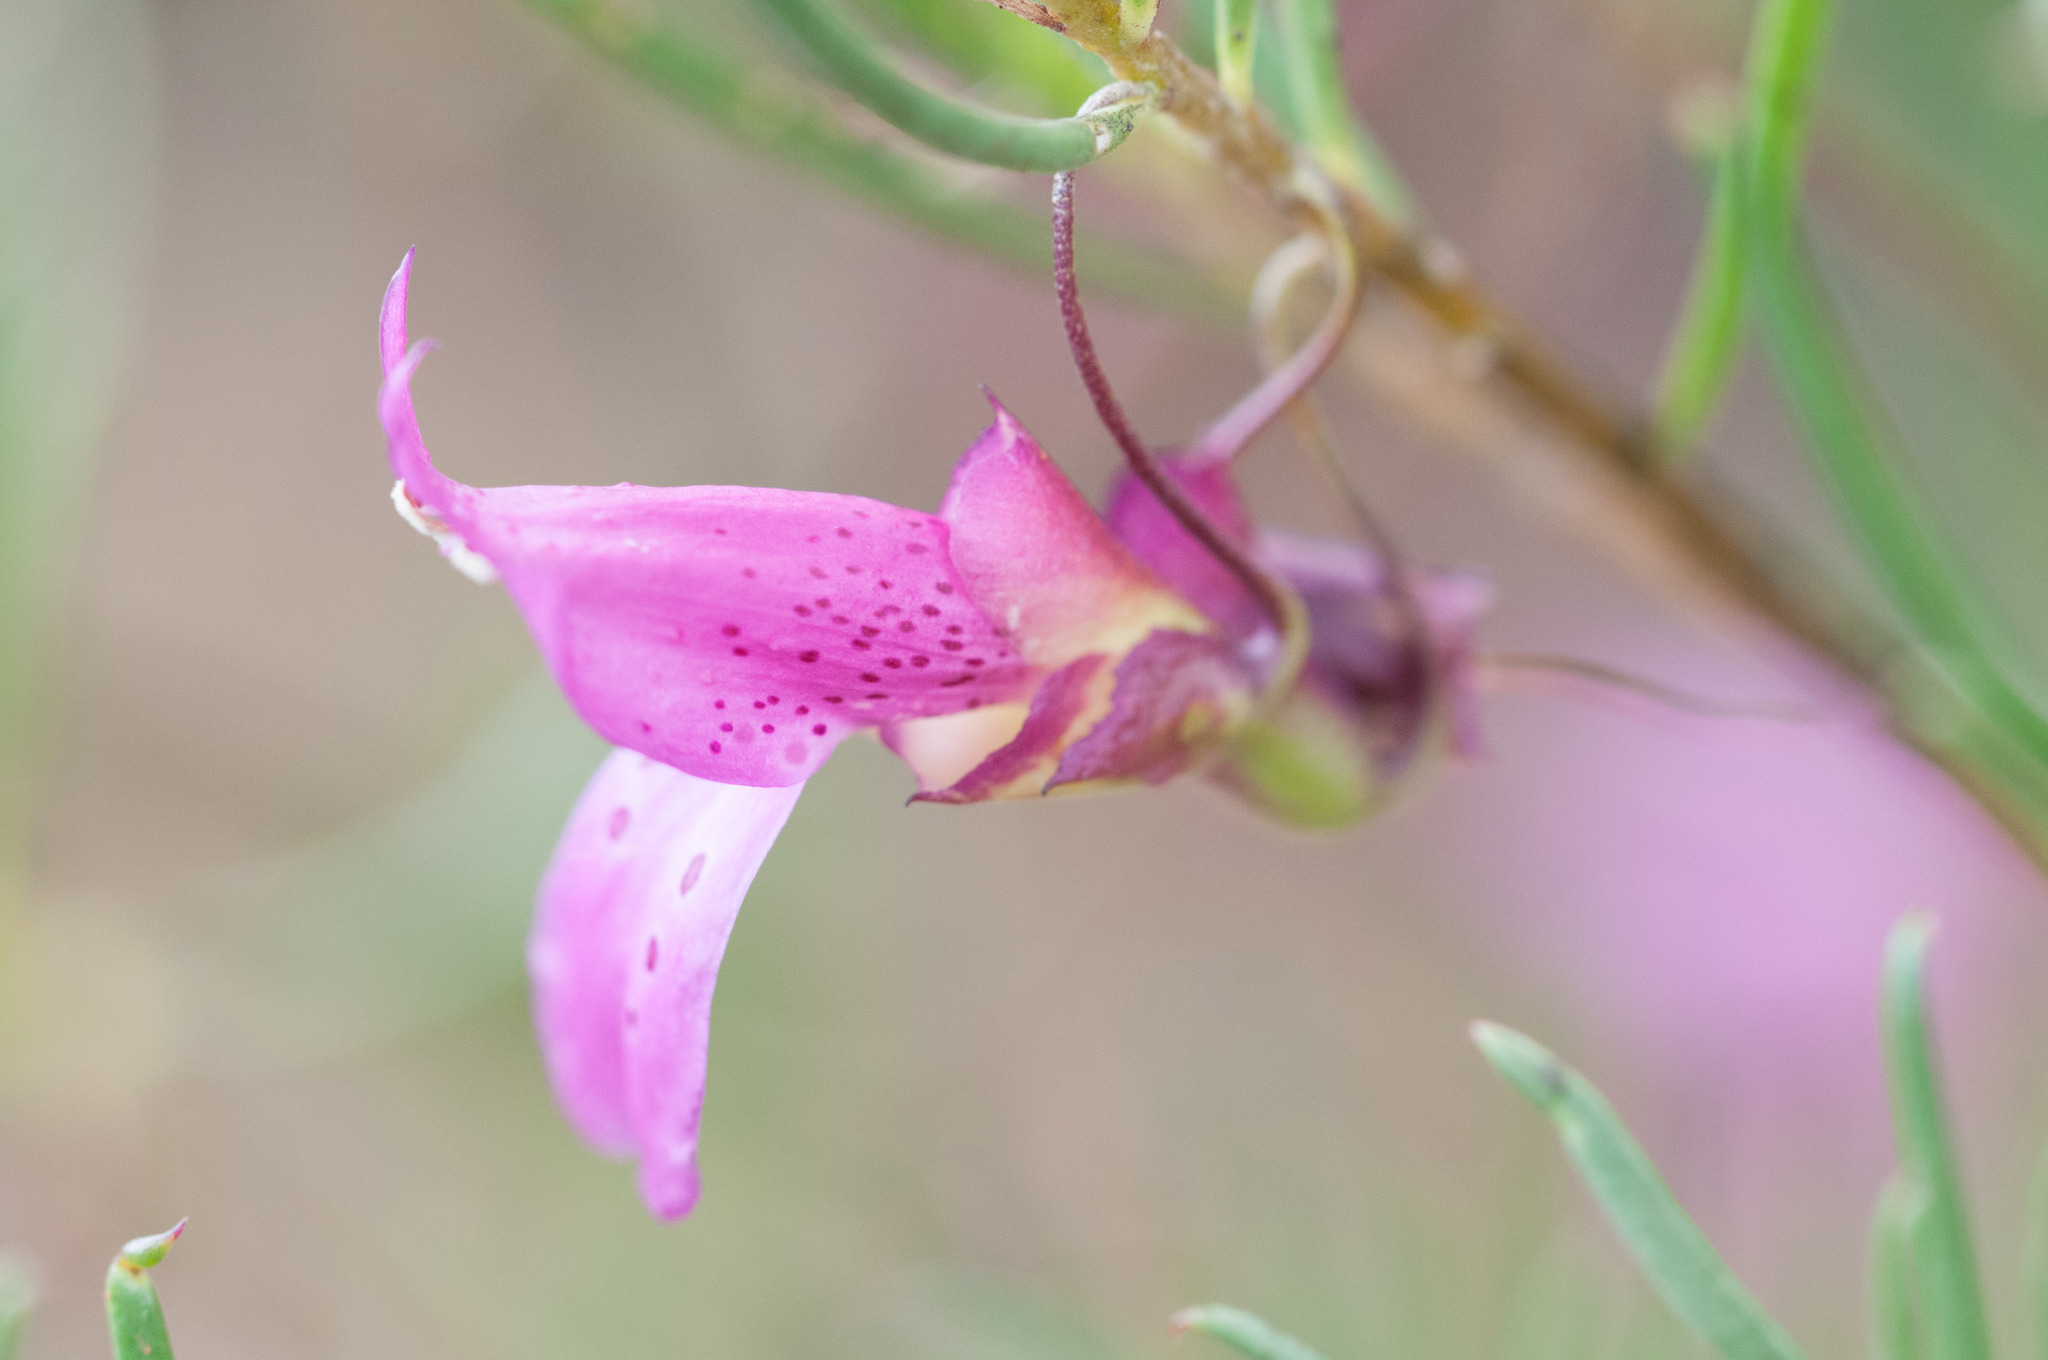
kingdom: Plantae
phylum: Tracheophyta
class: Magnoliopsida
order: Lamiales
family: Scrophulariaceae
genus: Eremophila
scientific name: Eremophila alternifolia
